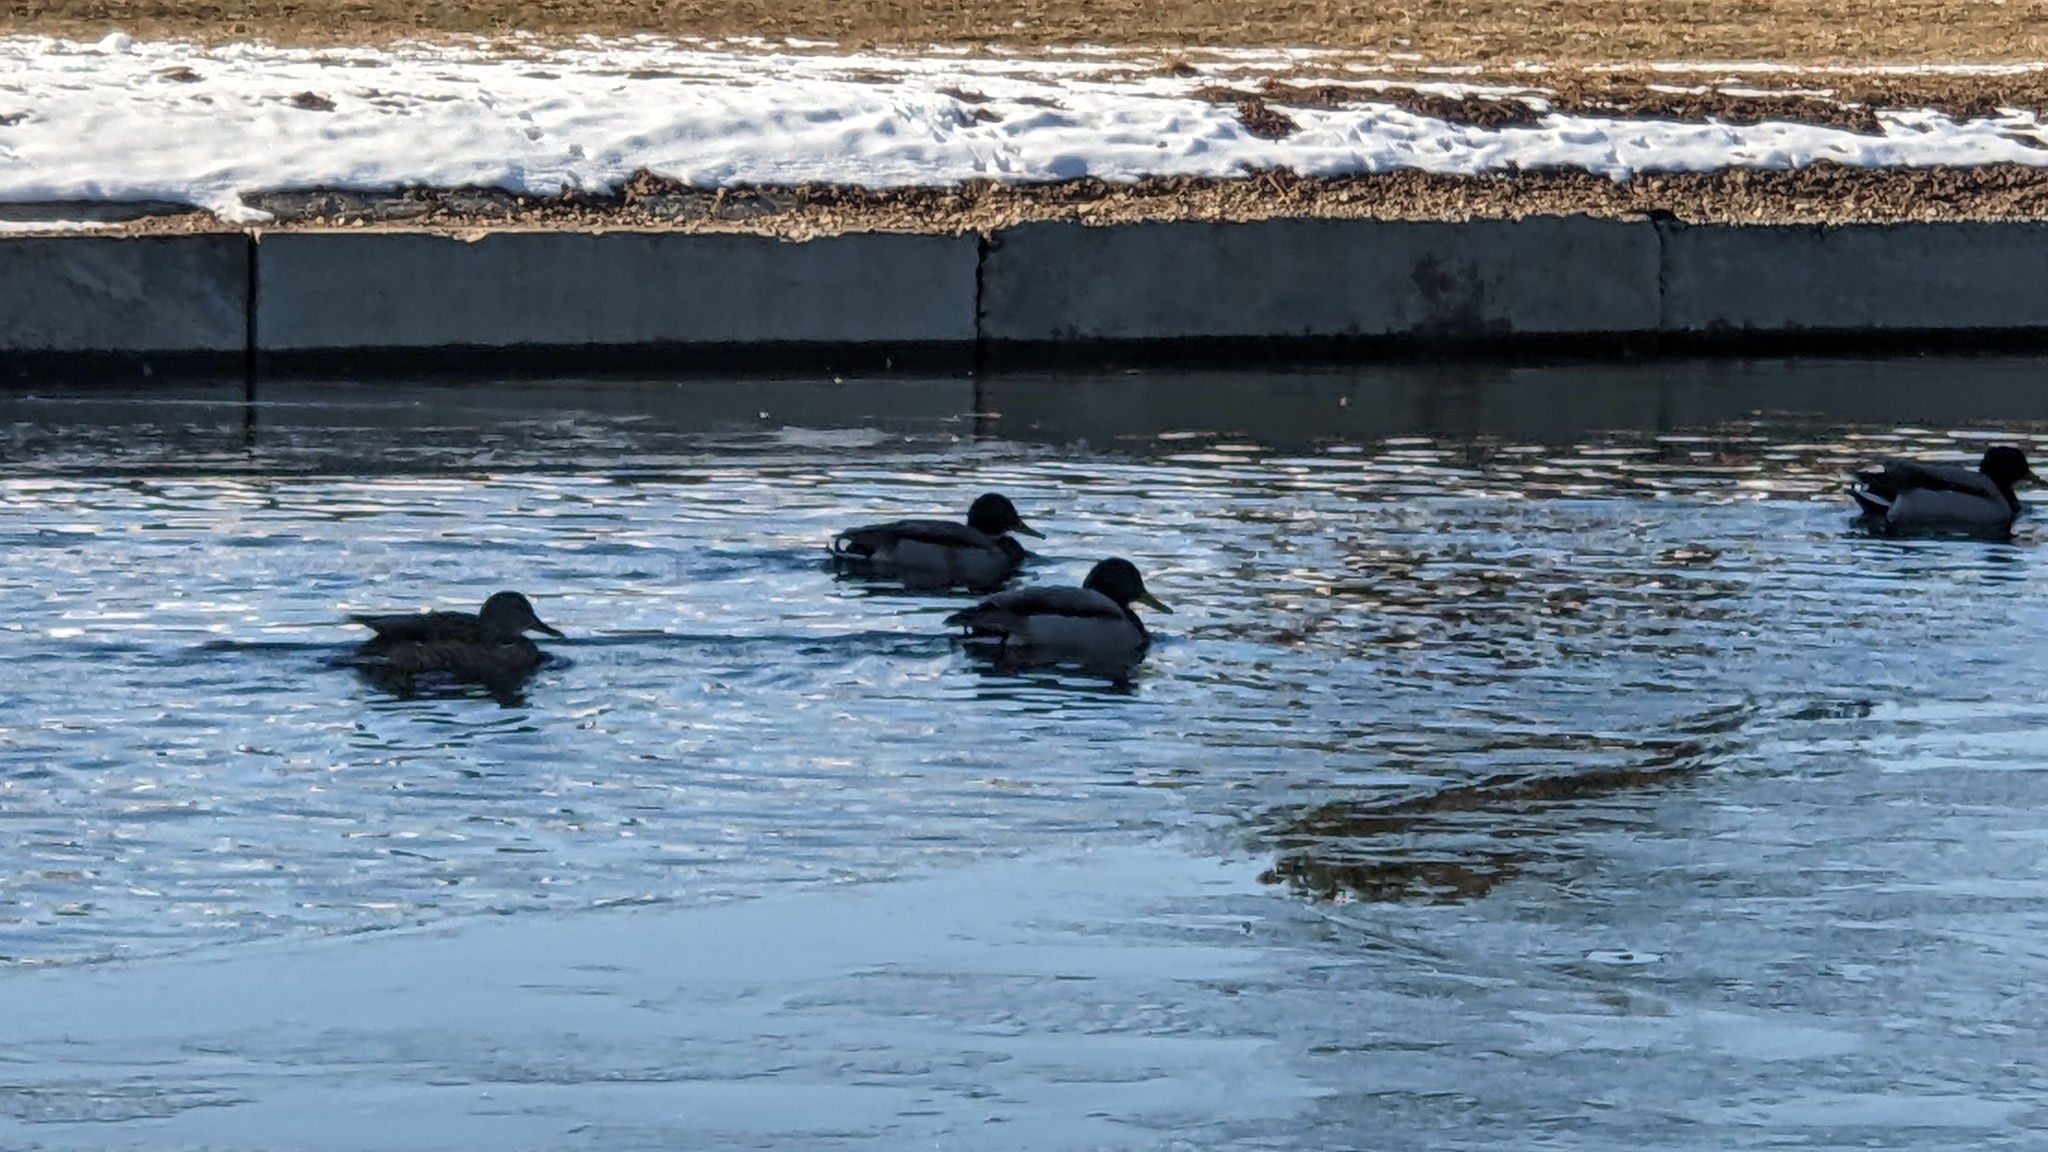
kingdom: Animalia
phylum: Chordata
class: Aves
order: Anseriformes
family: Anatidae
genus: Anas
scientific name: Anas platyrhynchos
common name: Mallard
